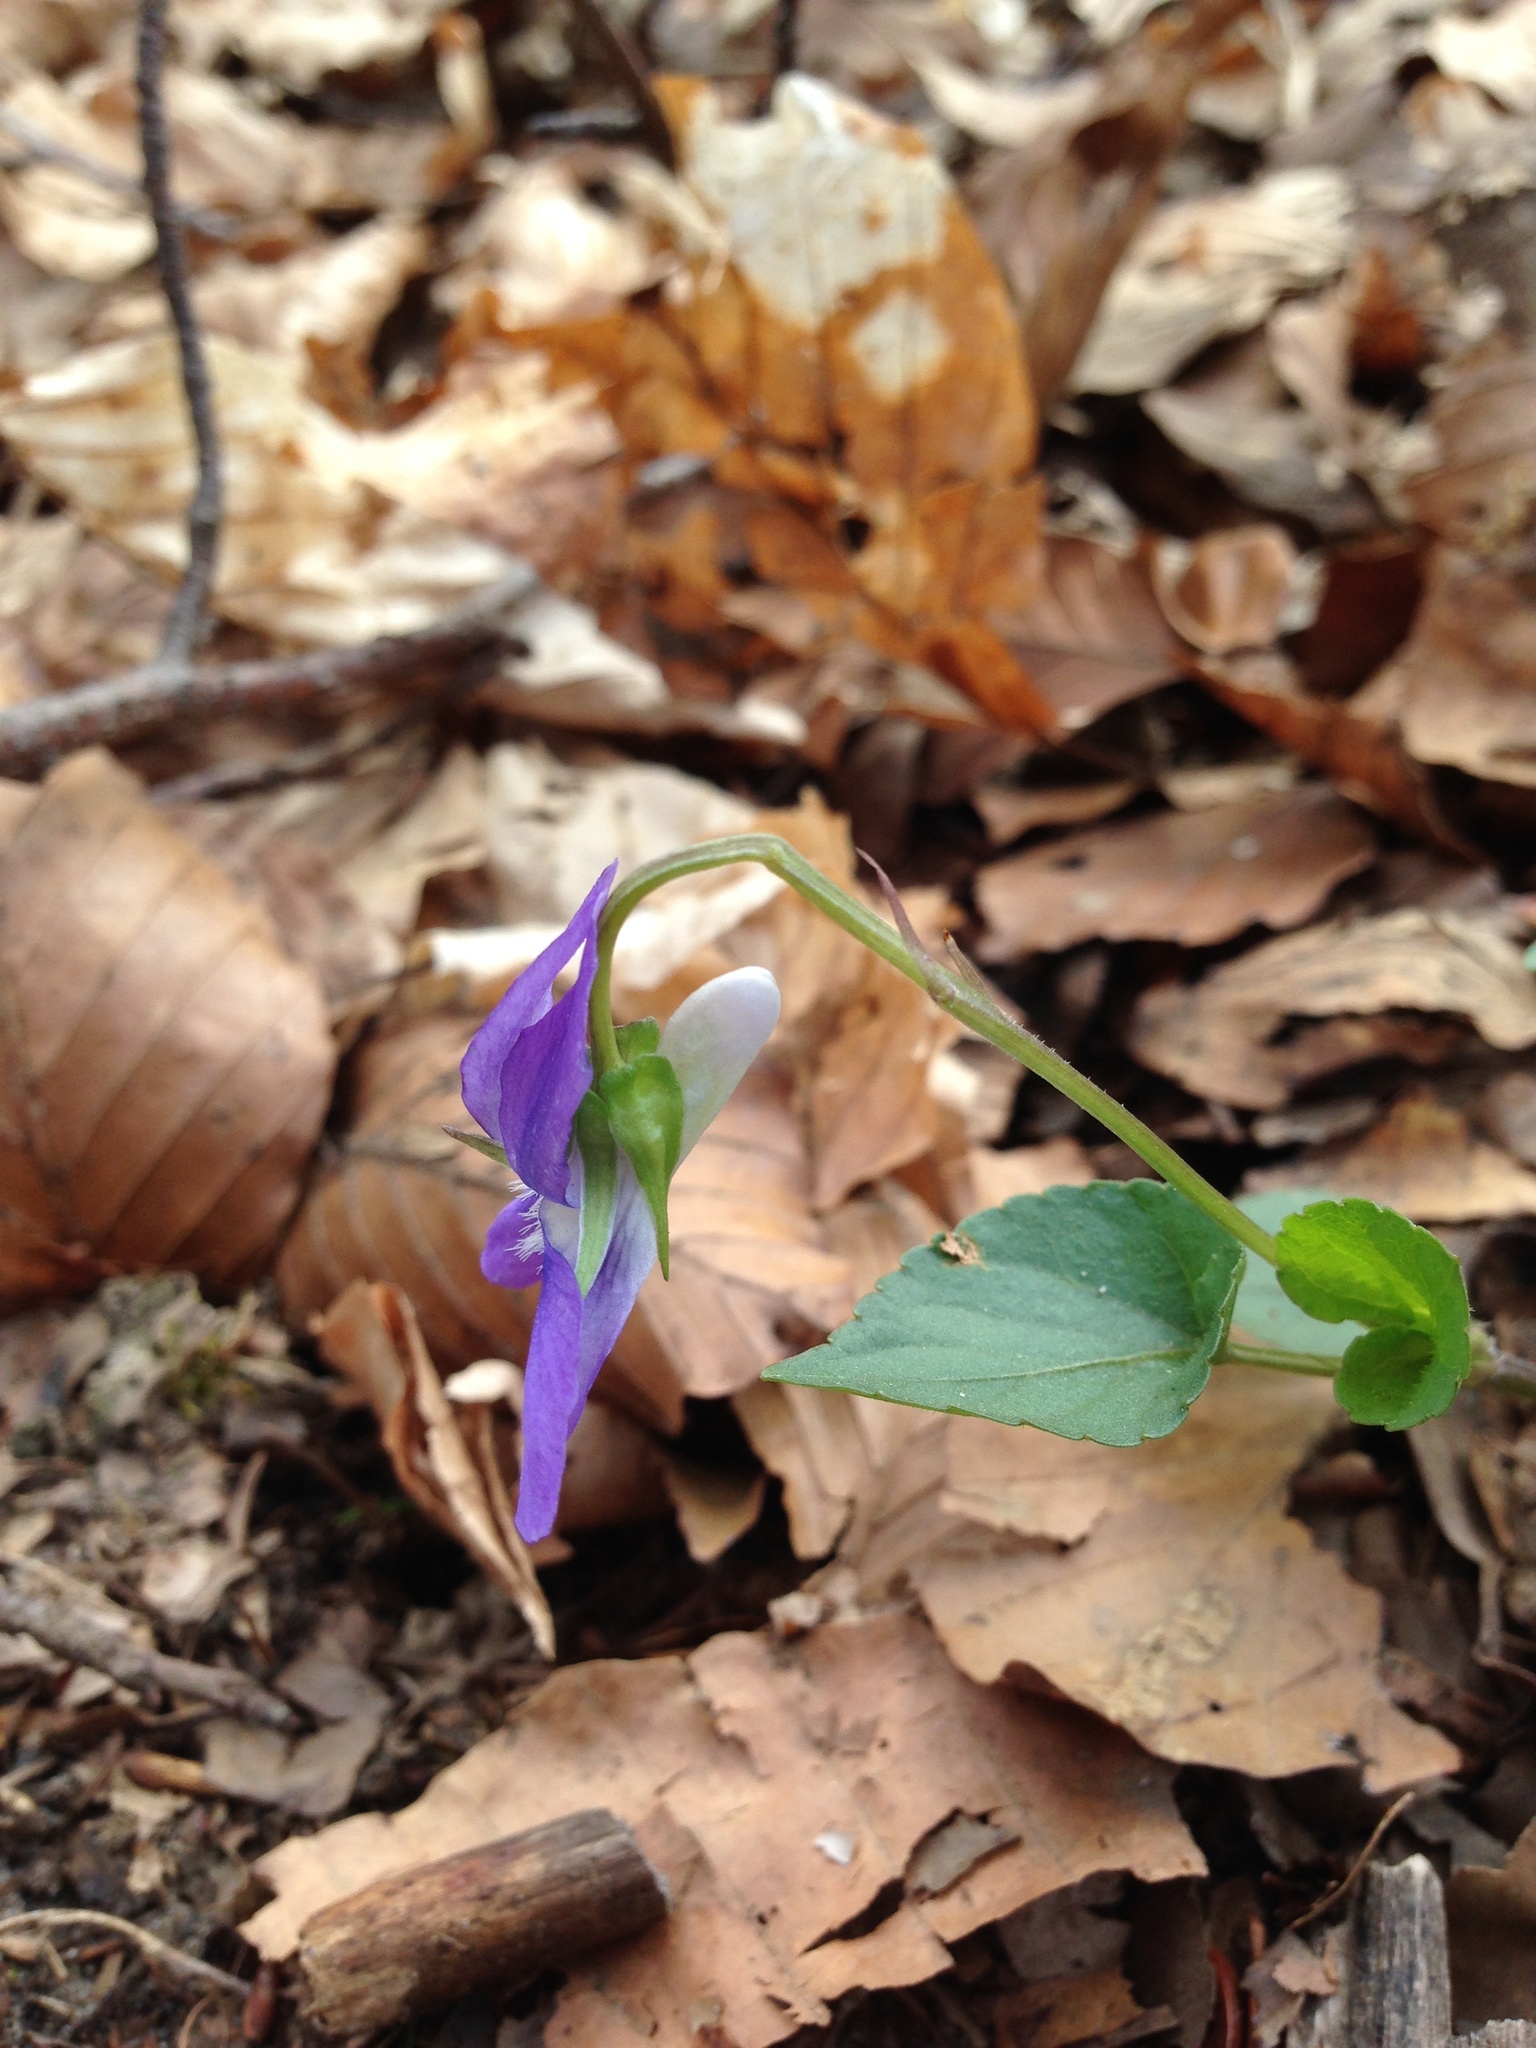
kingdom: Plantae
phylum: Tracheophyta
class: Magnoliopsida
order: Malpighiales
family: Violaceae
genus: Viola
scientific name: Viola riviniana
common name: Common dog-violet
